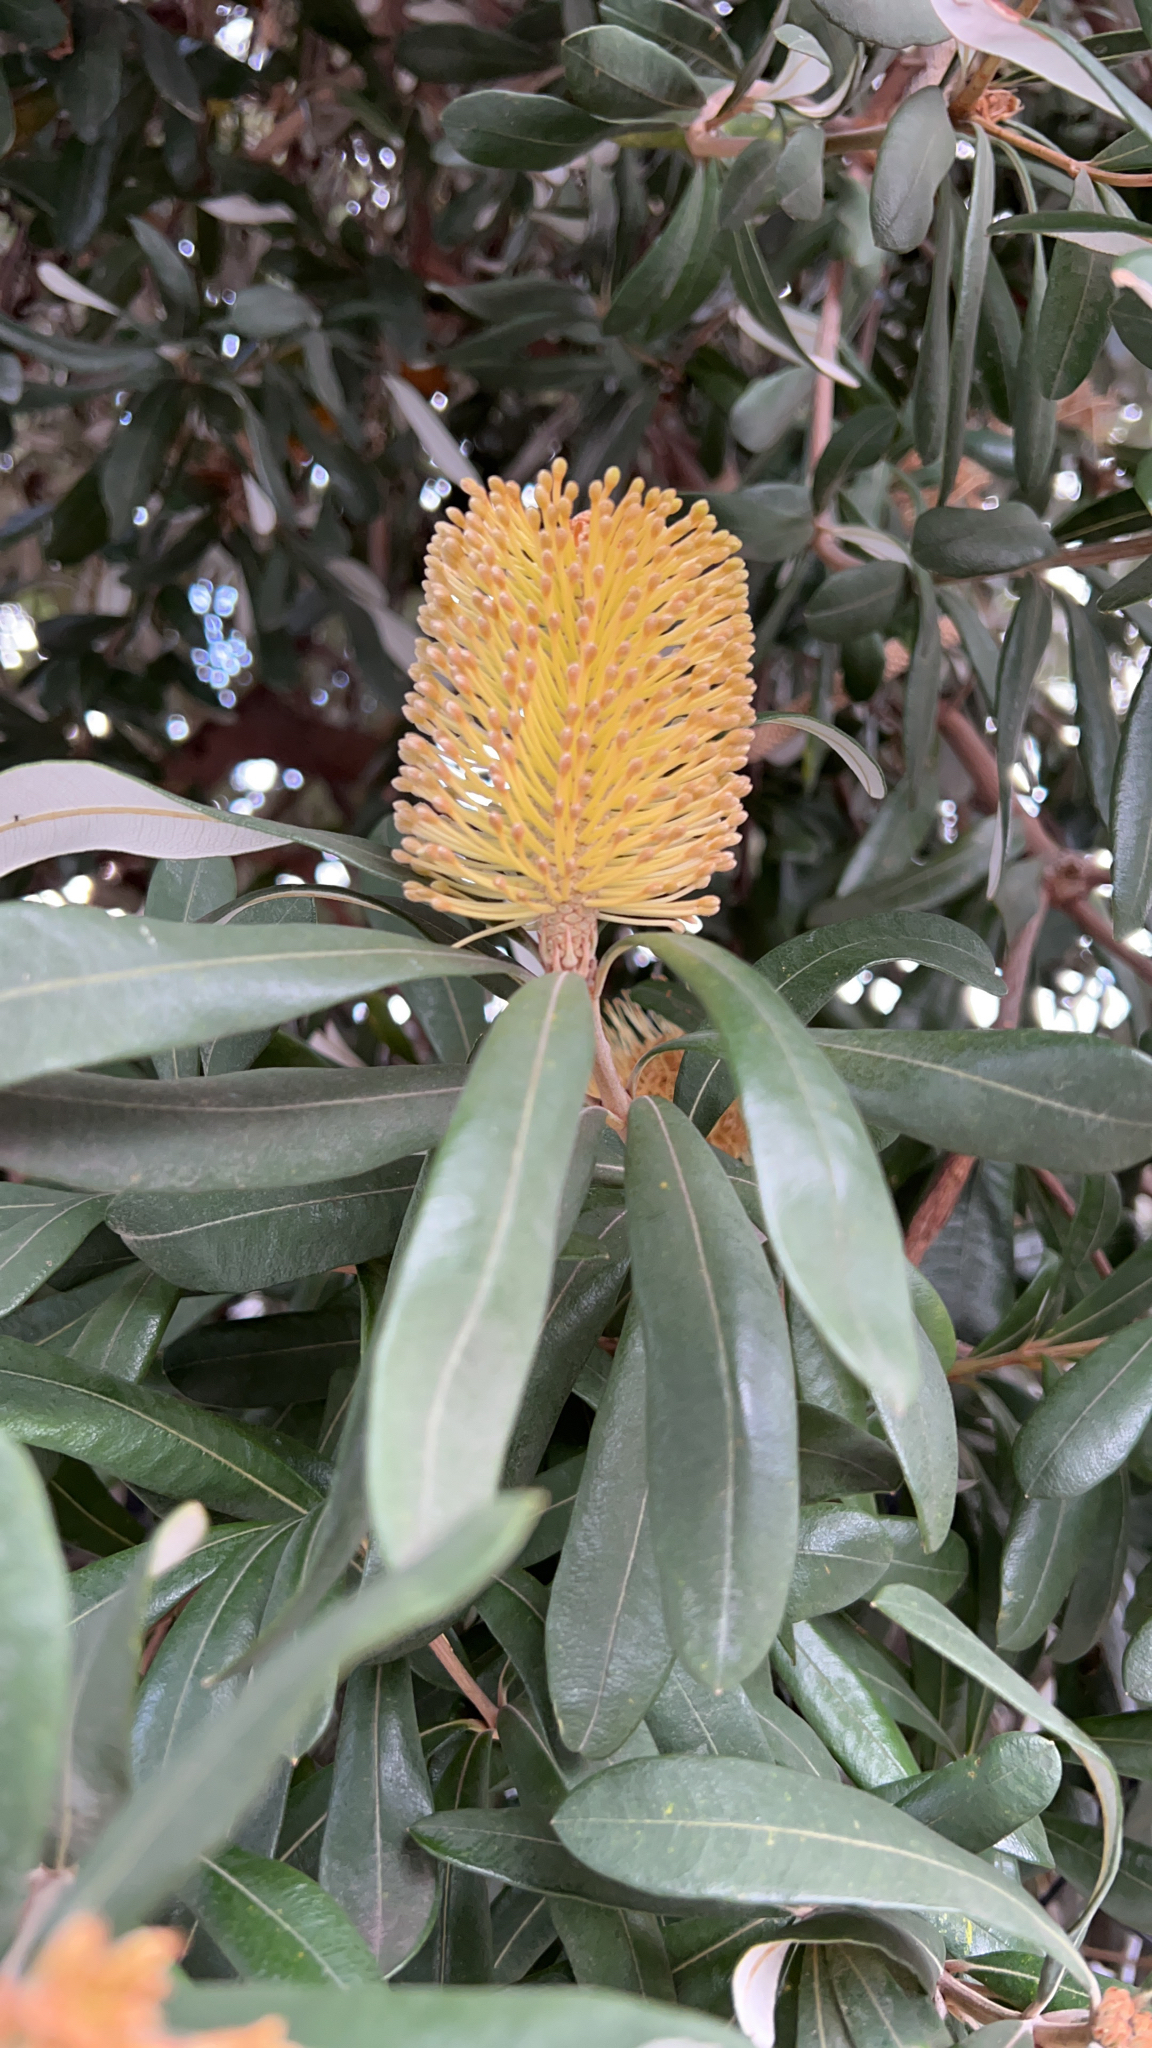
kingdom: Plantae
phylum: Tracheophyta
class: Magnoliopsida
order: Proteales
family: Proteaceae
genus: Banksia
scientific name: Banksia integrifolia
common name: White-honeysuckle
